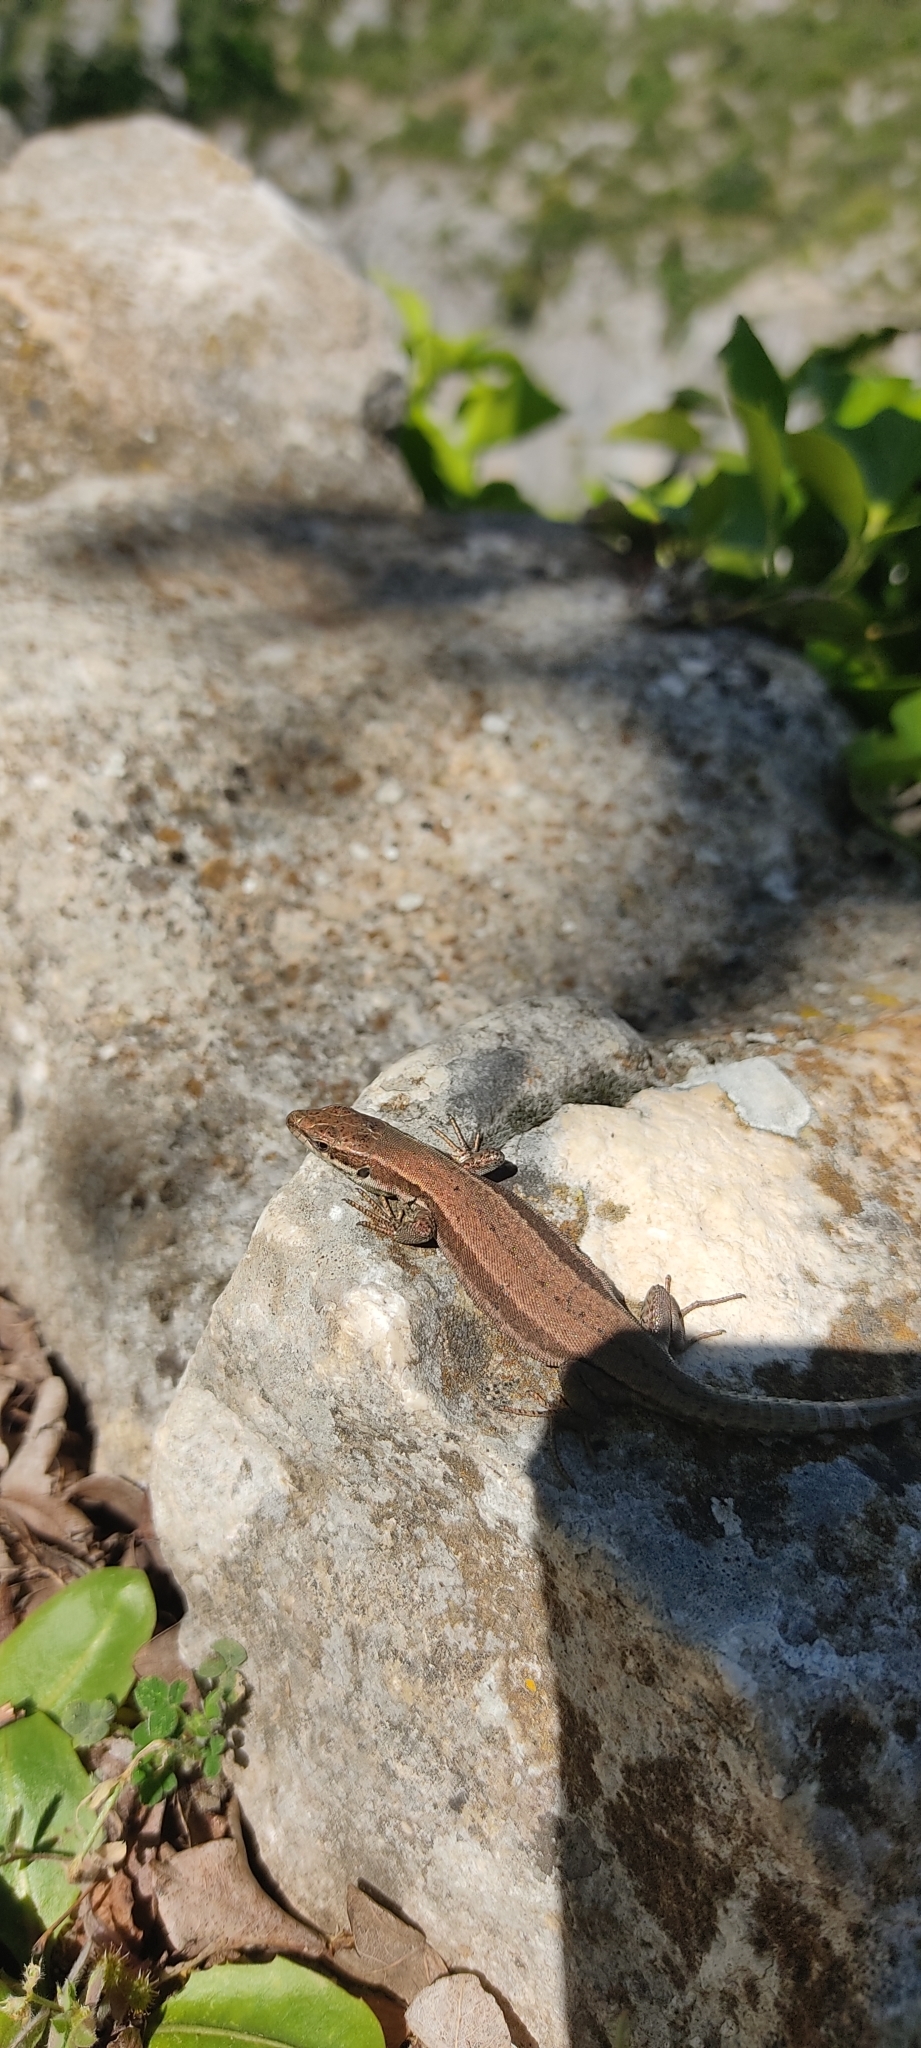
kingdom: Animalia
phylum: Chordata
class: Squamata
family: Lacertidae
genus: Podarcis
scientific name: Podarcis muralis
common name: Common wall lizard
